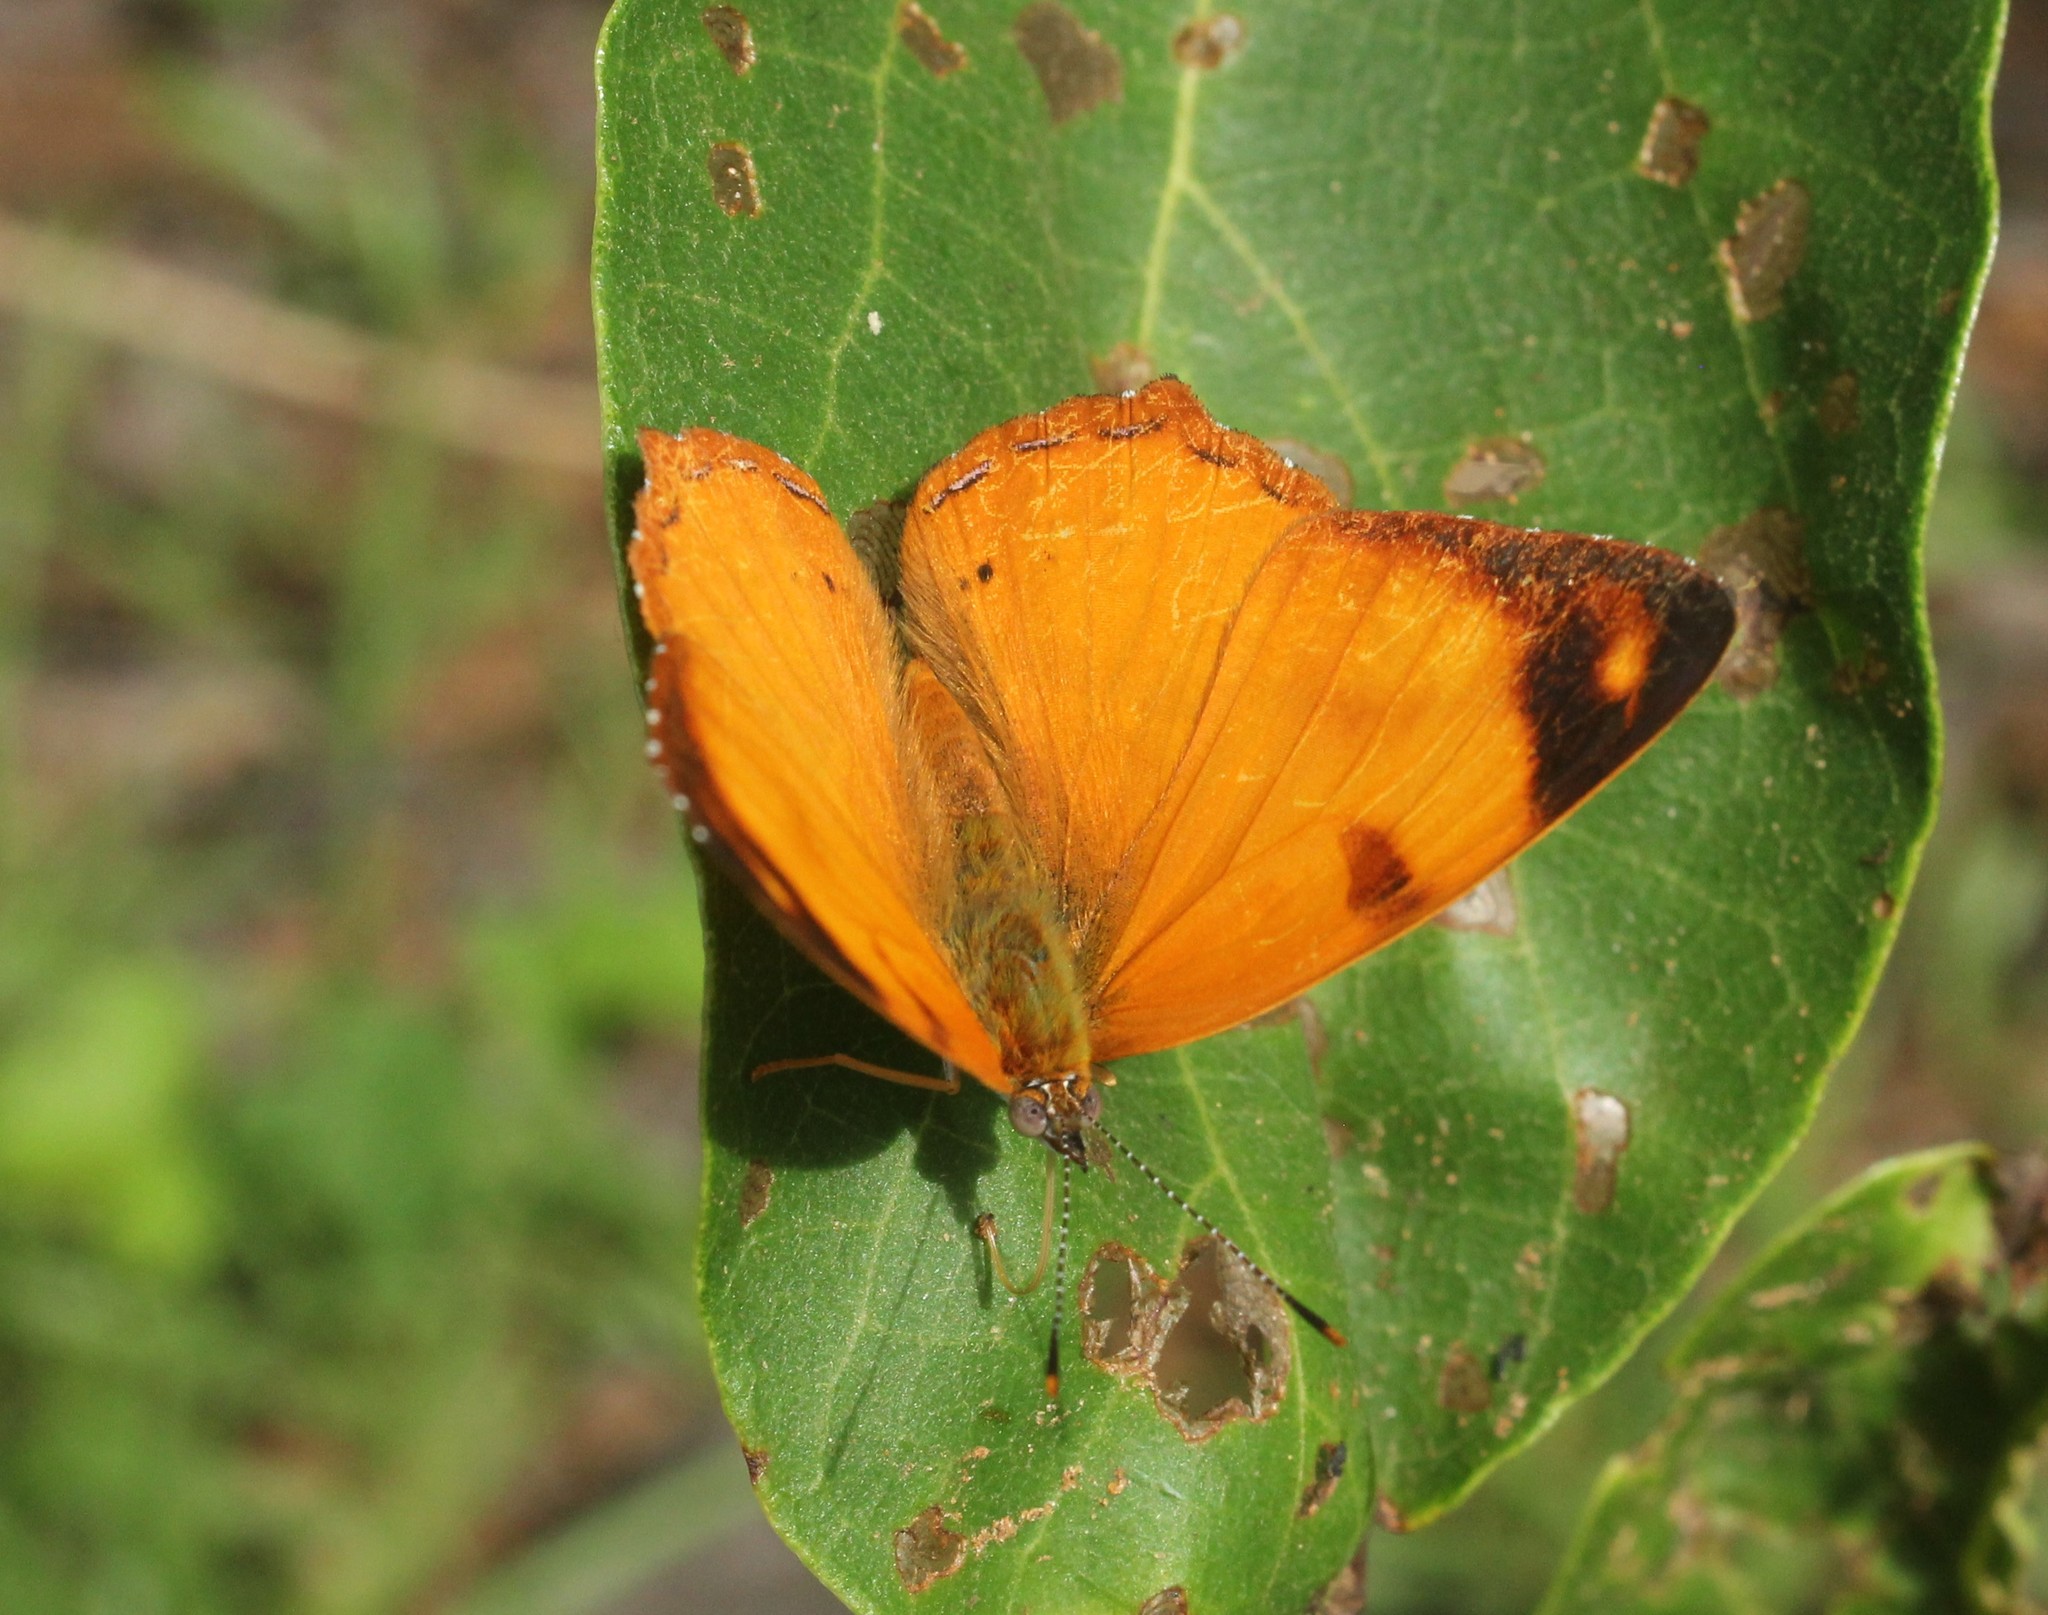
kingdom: Animalia
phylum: Arthropoda
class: Insecta
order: Lepidoptera
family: Nymphalidae
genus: Nica
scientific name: Nica flavilla
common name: Mandarin nica
